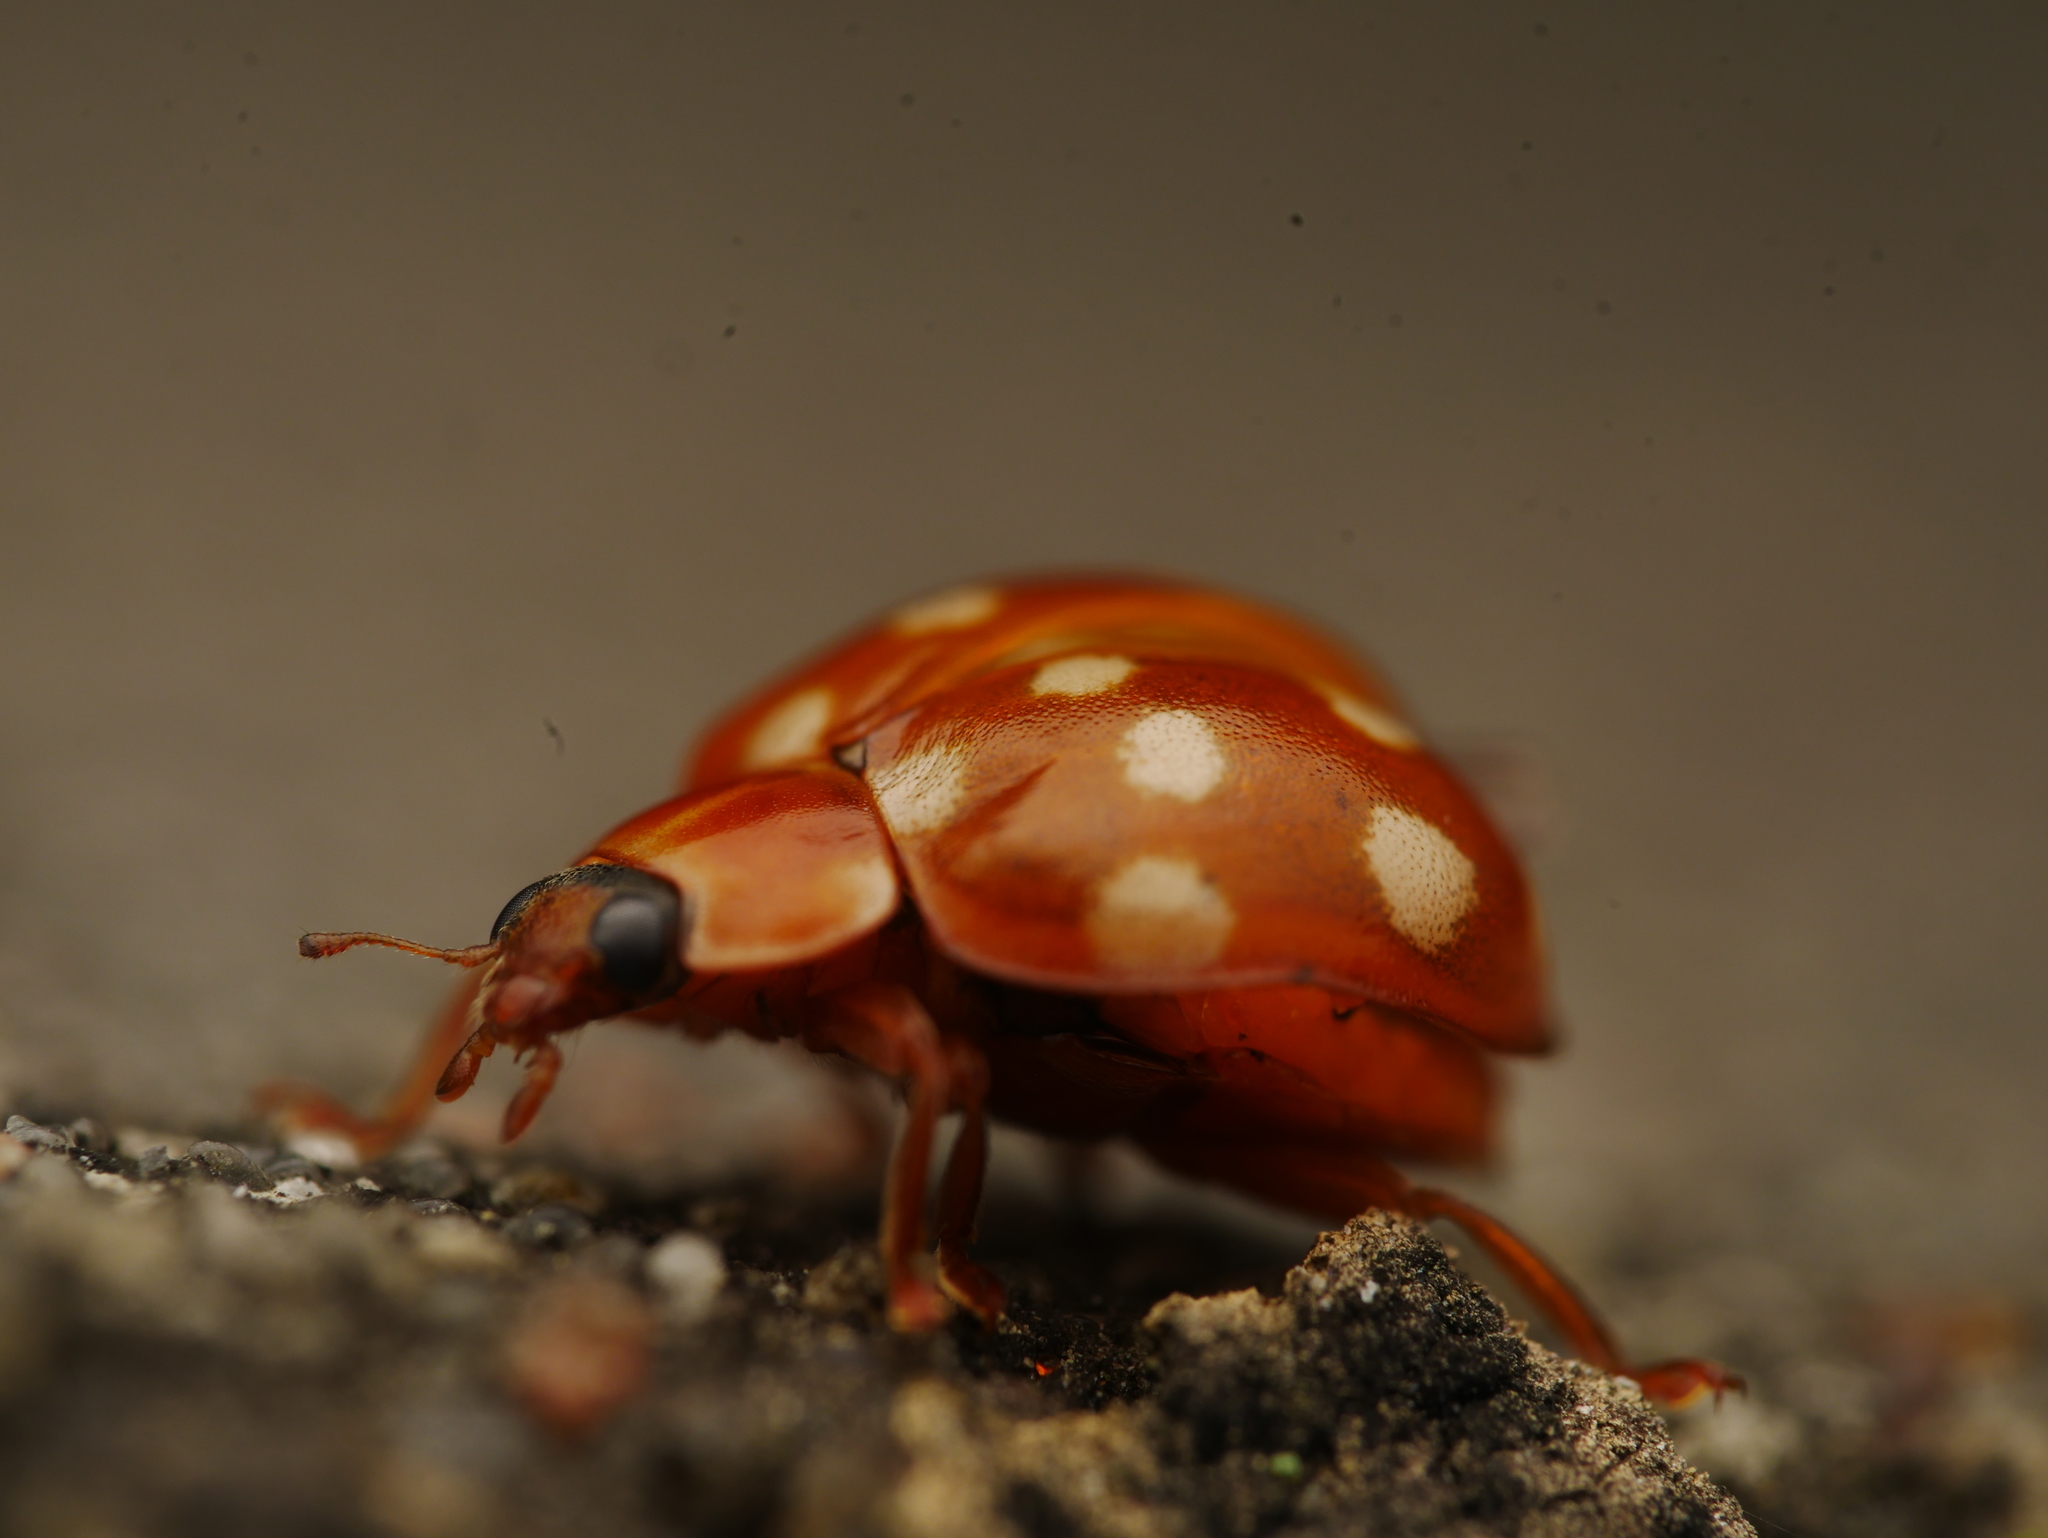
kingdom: Animalia
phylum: Arthropoda
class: Insecta
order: Coleoptera
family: Coccinellidae
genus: Calvia
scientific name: Calvia quatuordecimguttata
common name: Cream-spot ladybird
